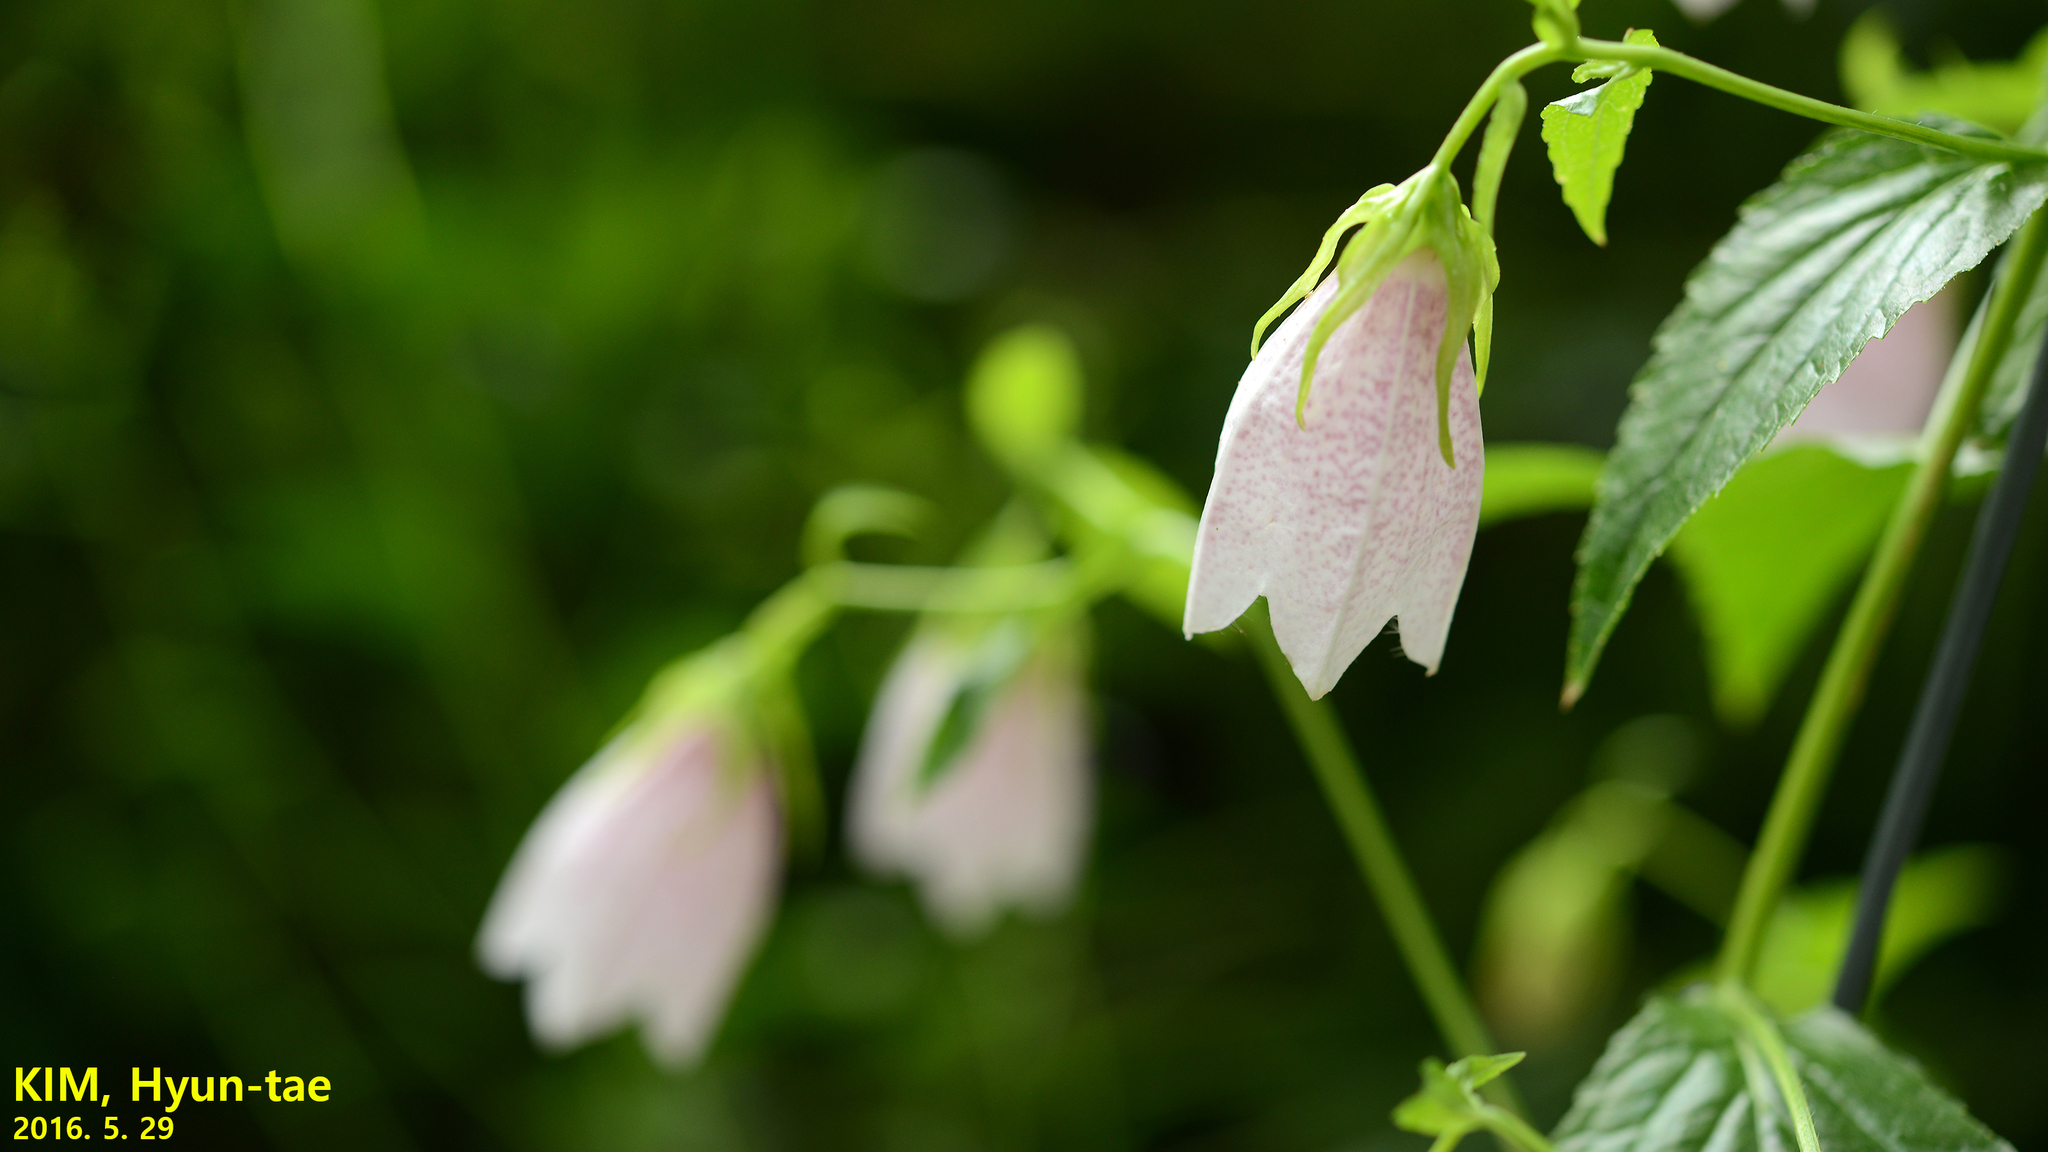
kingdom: Plantae
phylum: Tracheophyta
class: Magnoliopsida
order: Asterales
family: Campanulaceae
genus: Campanula
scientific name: Campanula punctata
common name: Spotted bellflower
